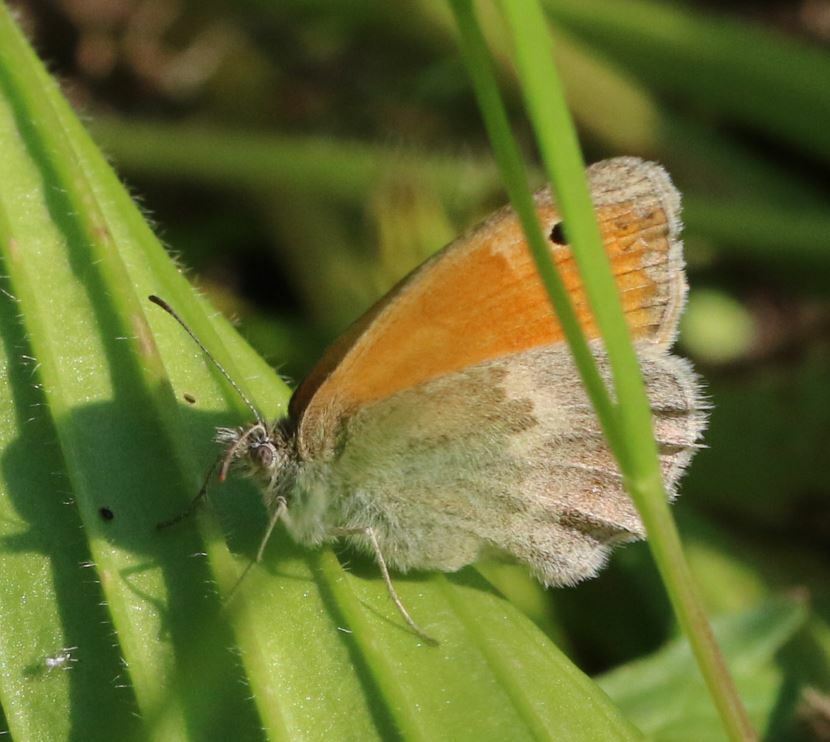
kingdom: Animalia
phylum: Arthropoda
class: Insecta
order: Lepidoptera
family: Nymphalidae
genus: Coenonympha
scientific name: Coenonympha pamphilus
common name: Small heath
